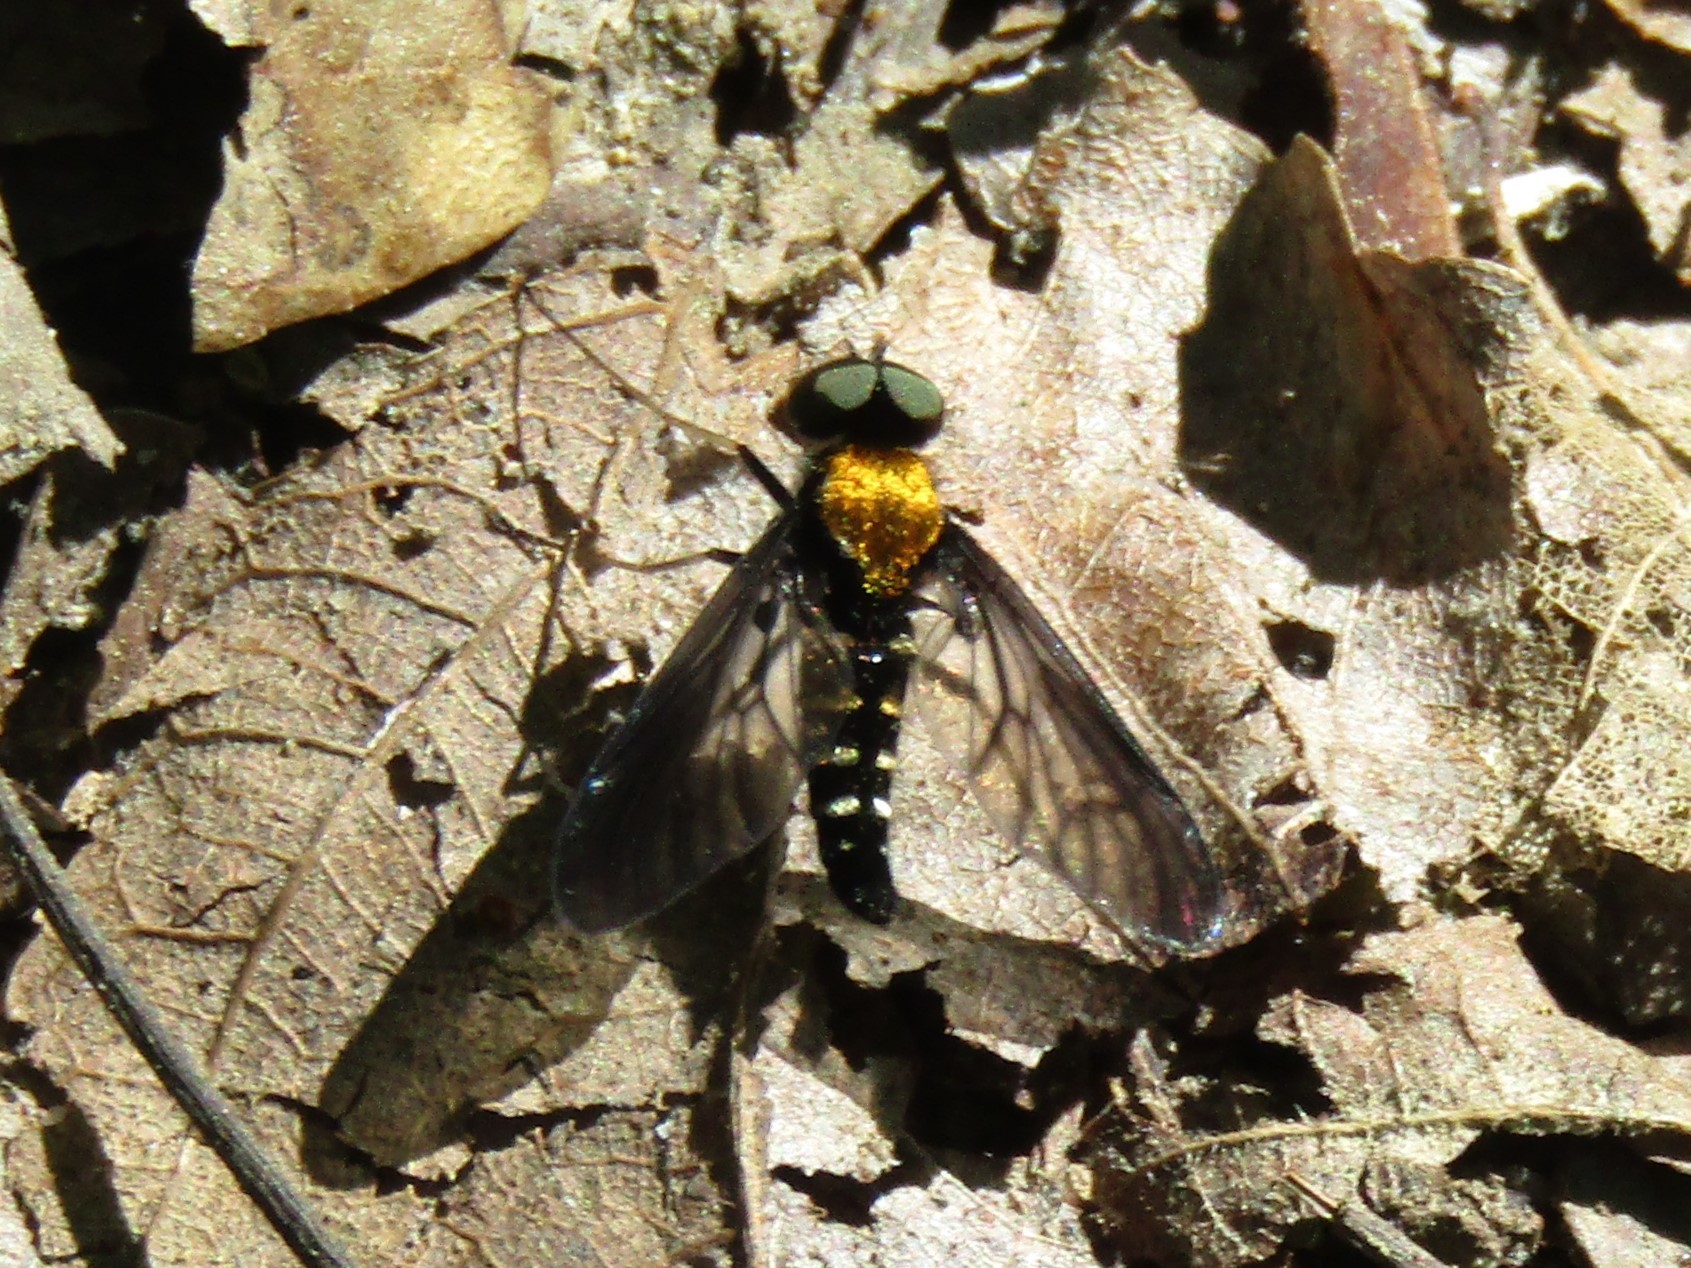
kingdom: Animalia
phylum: Arthropoda
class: Insecta
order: Diptera
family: Rhagionidae
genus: Chrysopilus
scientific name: Chrysopilus thoracicus
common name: Golden-backed snipe fly
